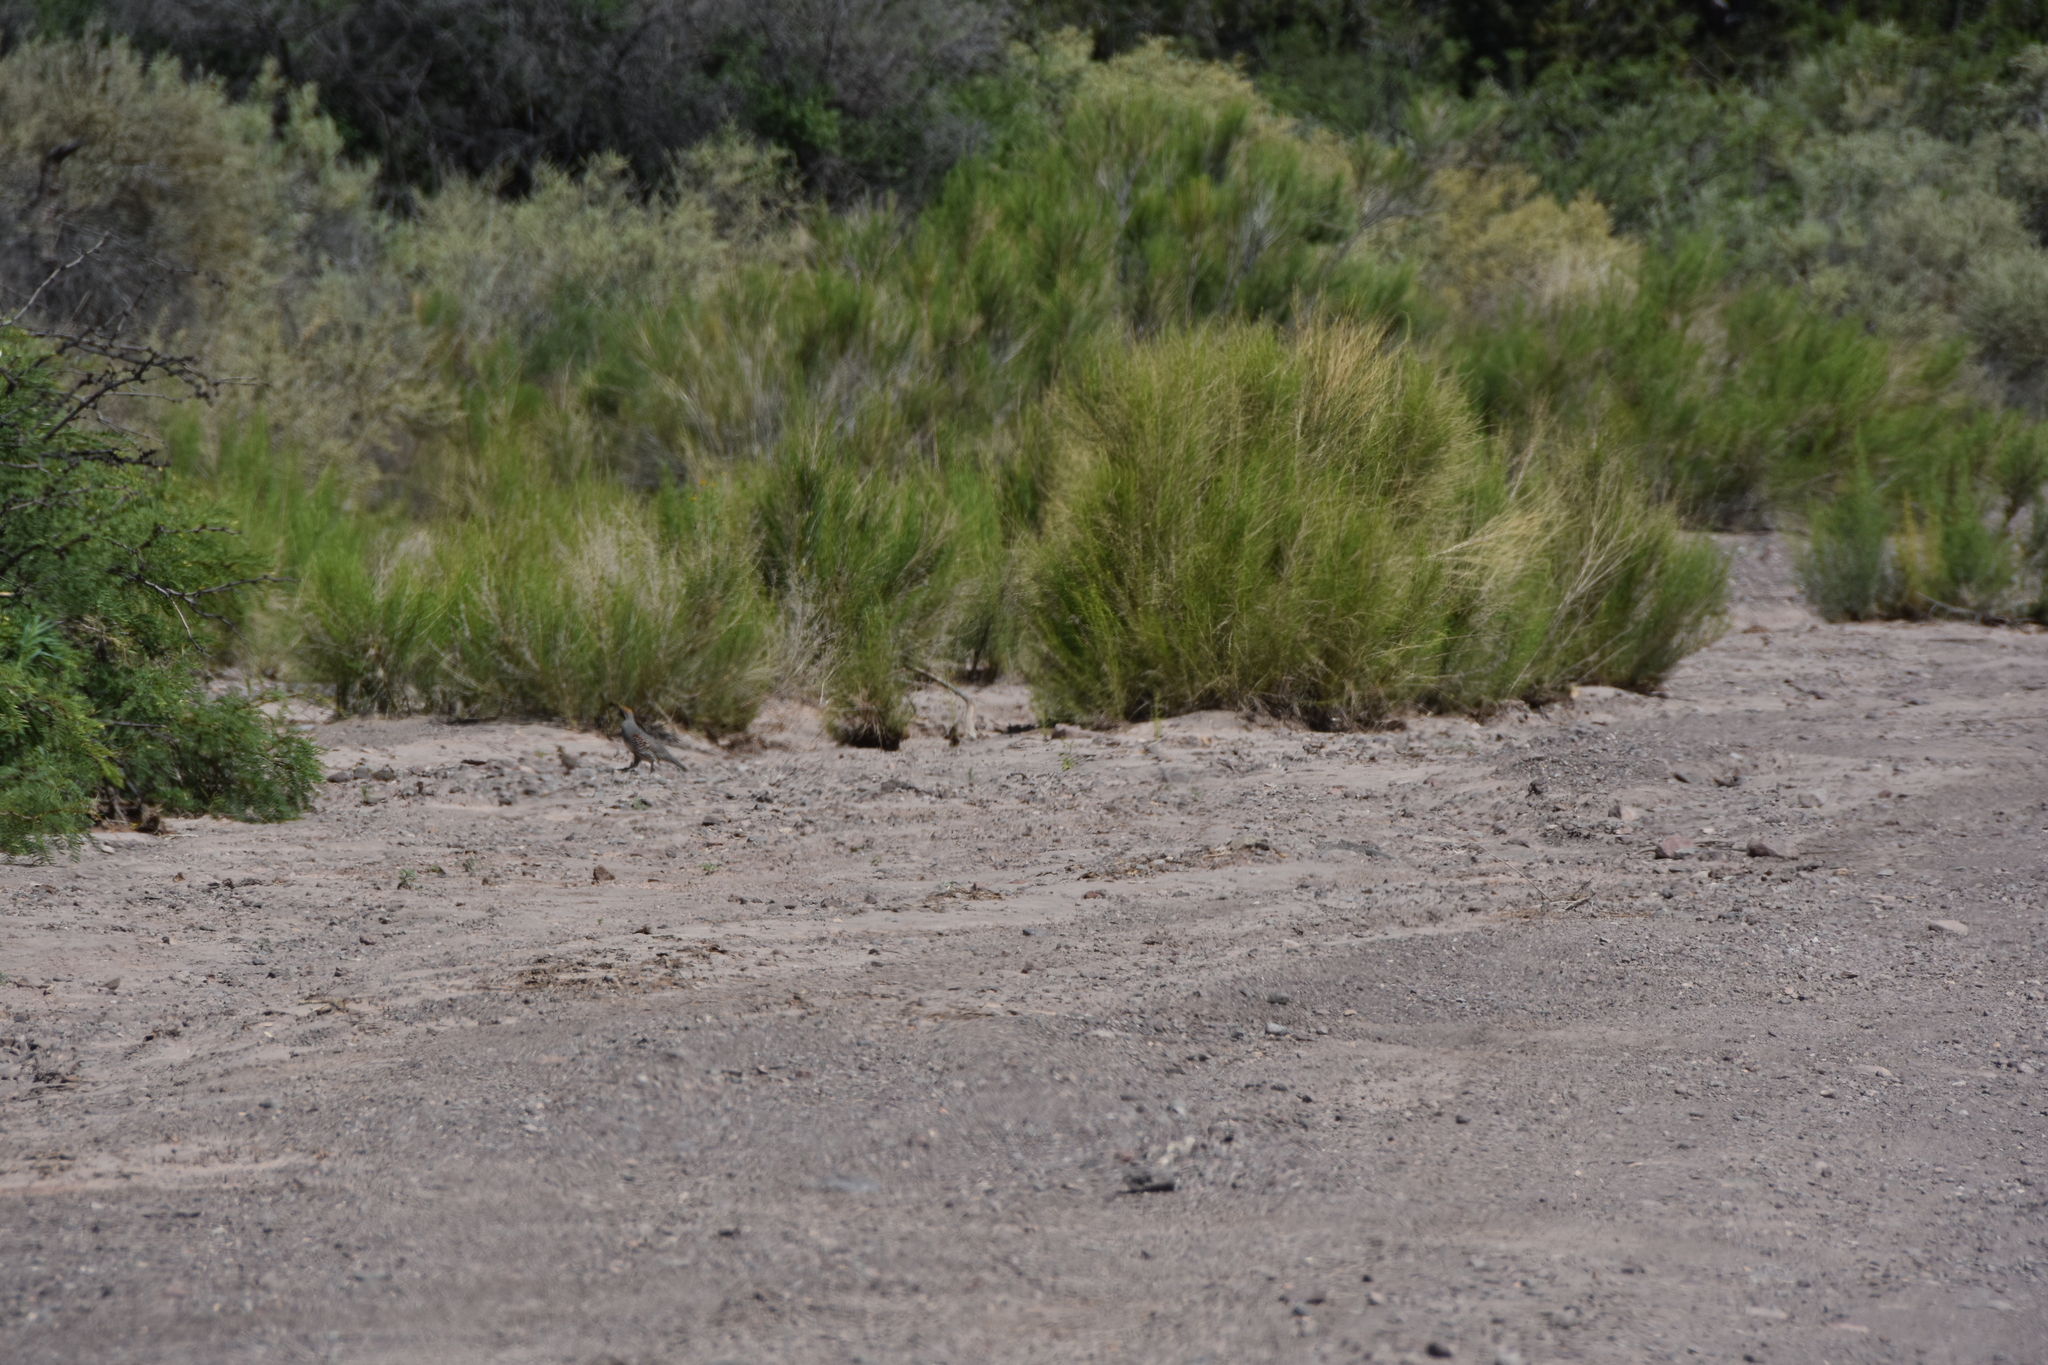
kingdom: Animalia
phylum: Chordata
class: Aves
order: Galliformes
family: Odontophoridae
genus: Callipepla
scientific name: Callipepla gambelii
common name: Gambel's quail
